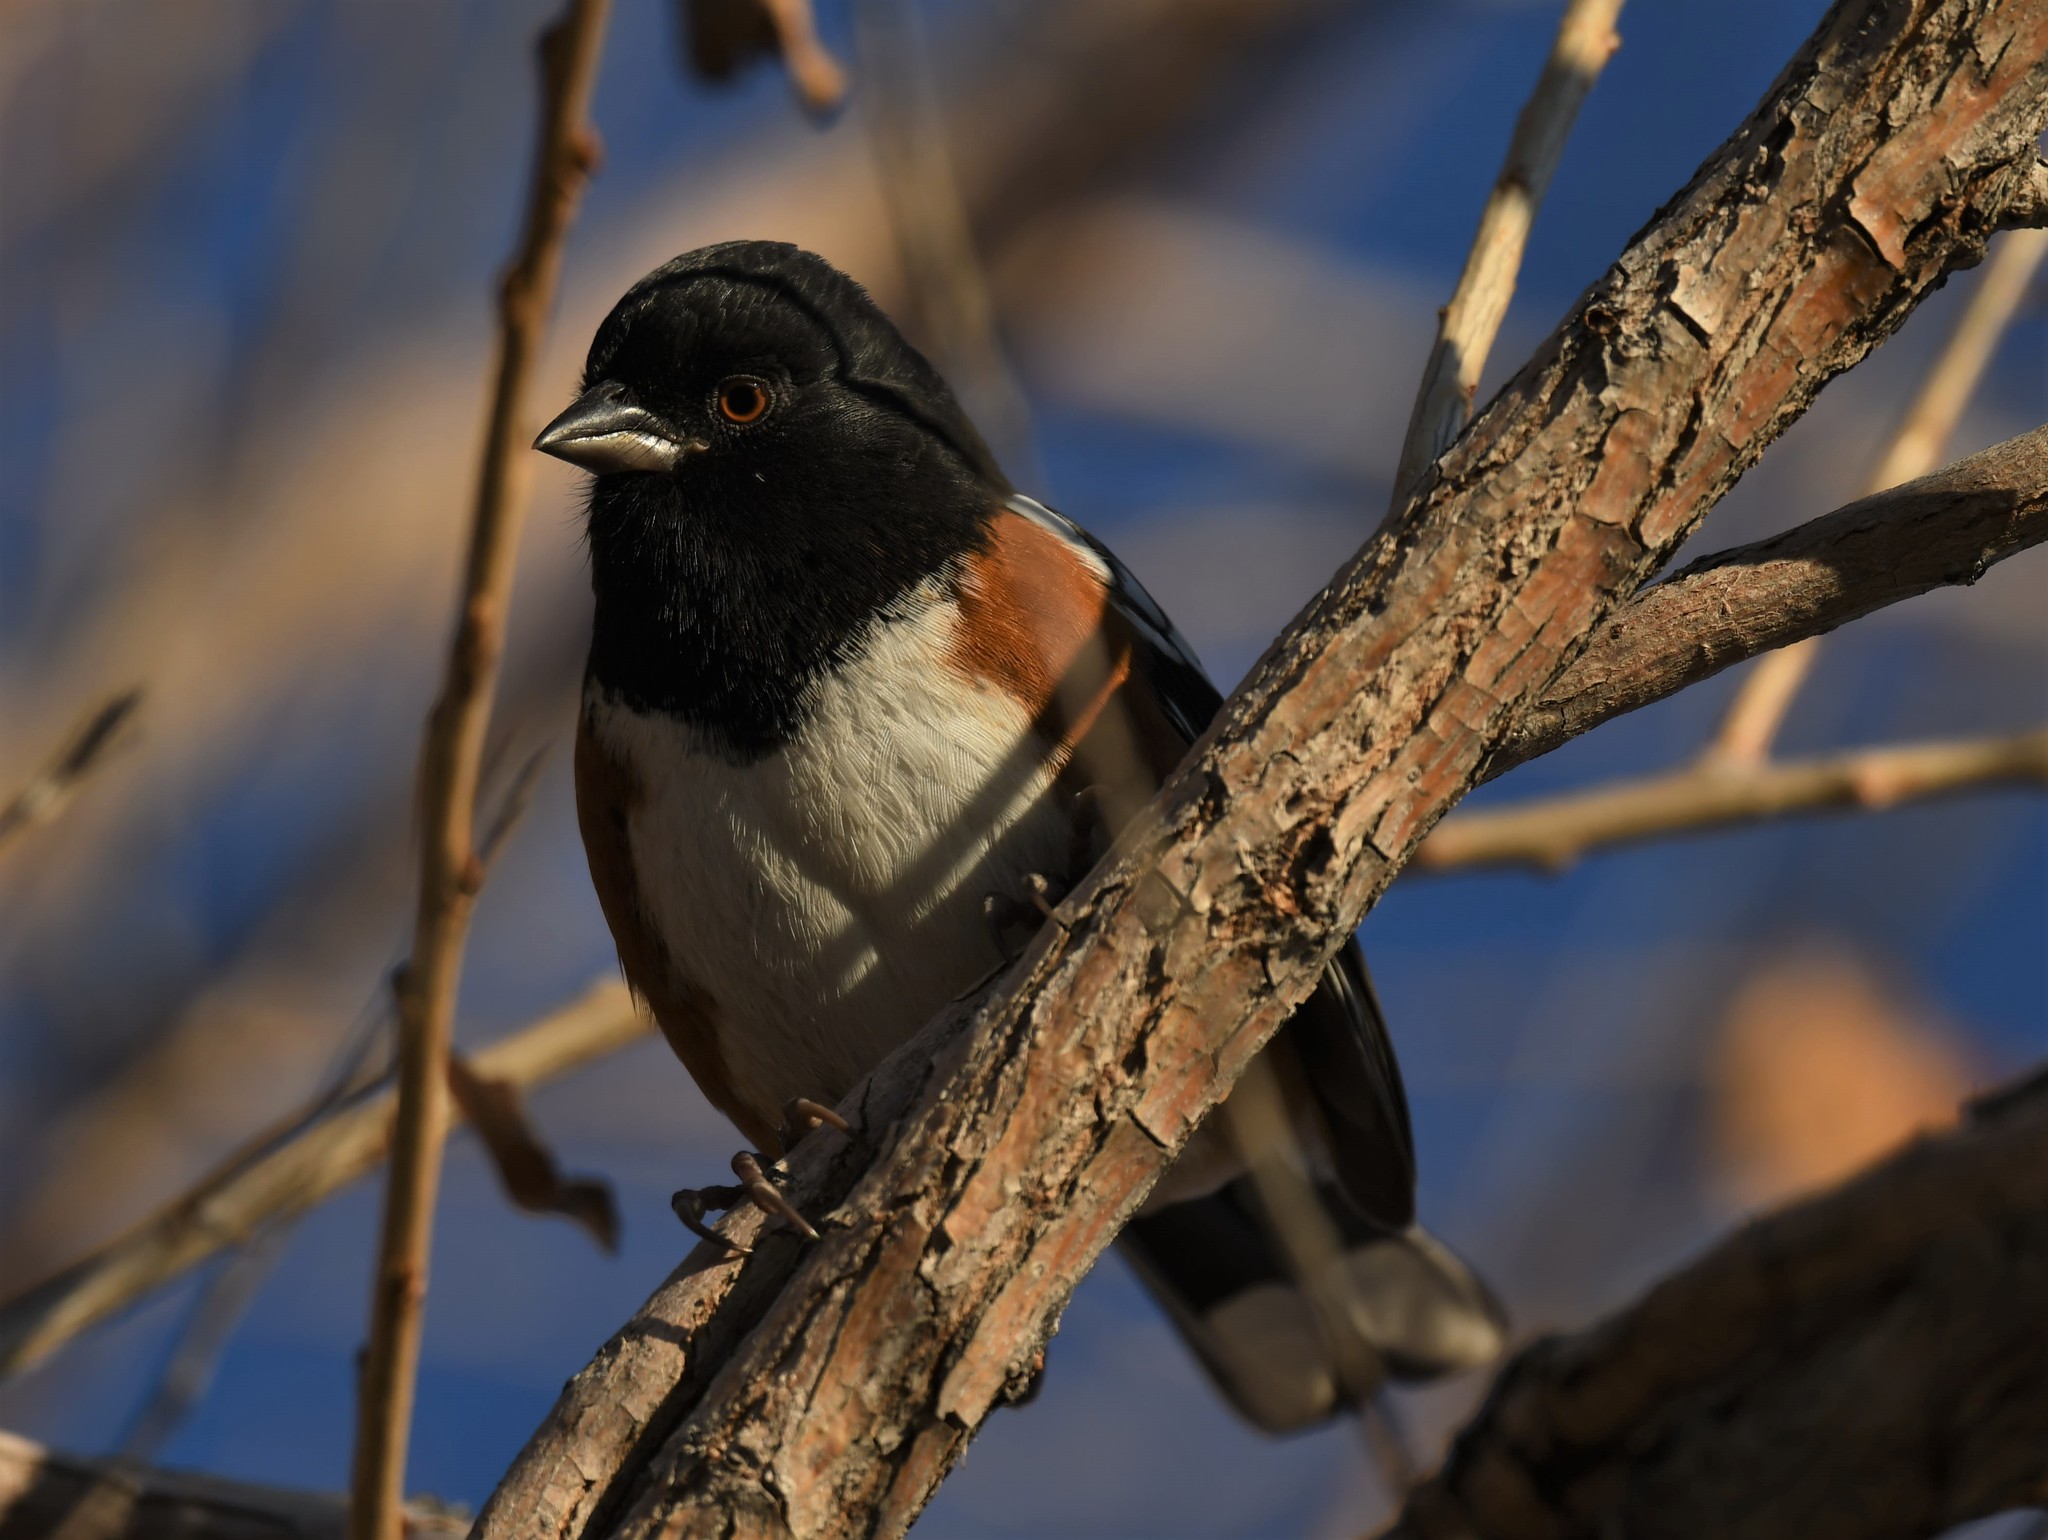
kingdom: Animalia
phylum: Chordata
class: Aves
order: Passeriformes
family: Passerellidae
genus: Pipilo
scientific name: Pipilo maculatus
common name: Spotted towhee
